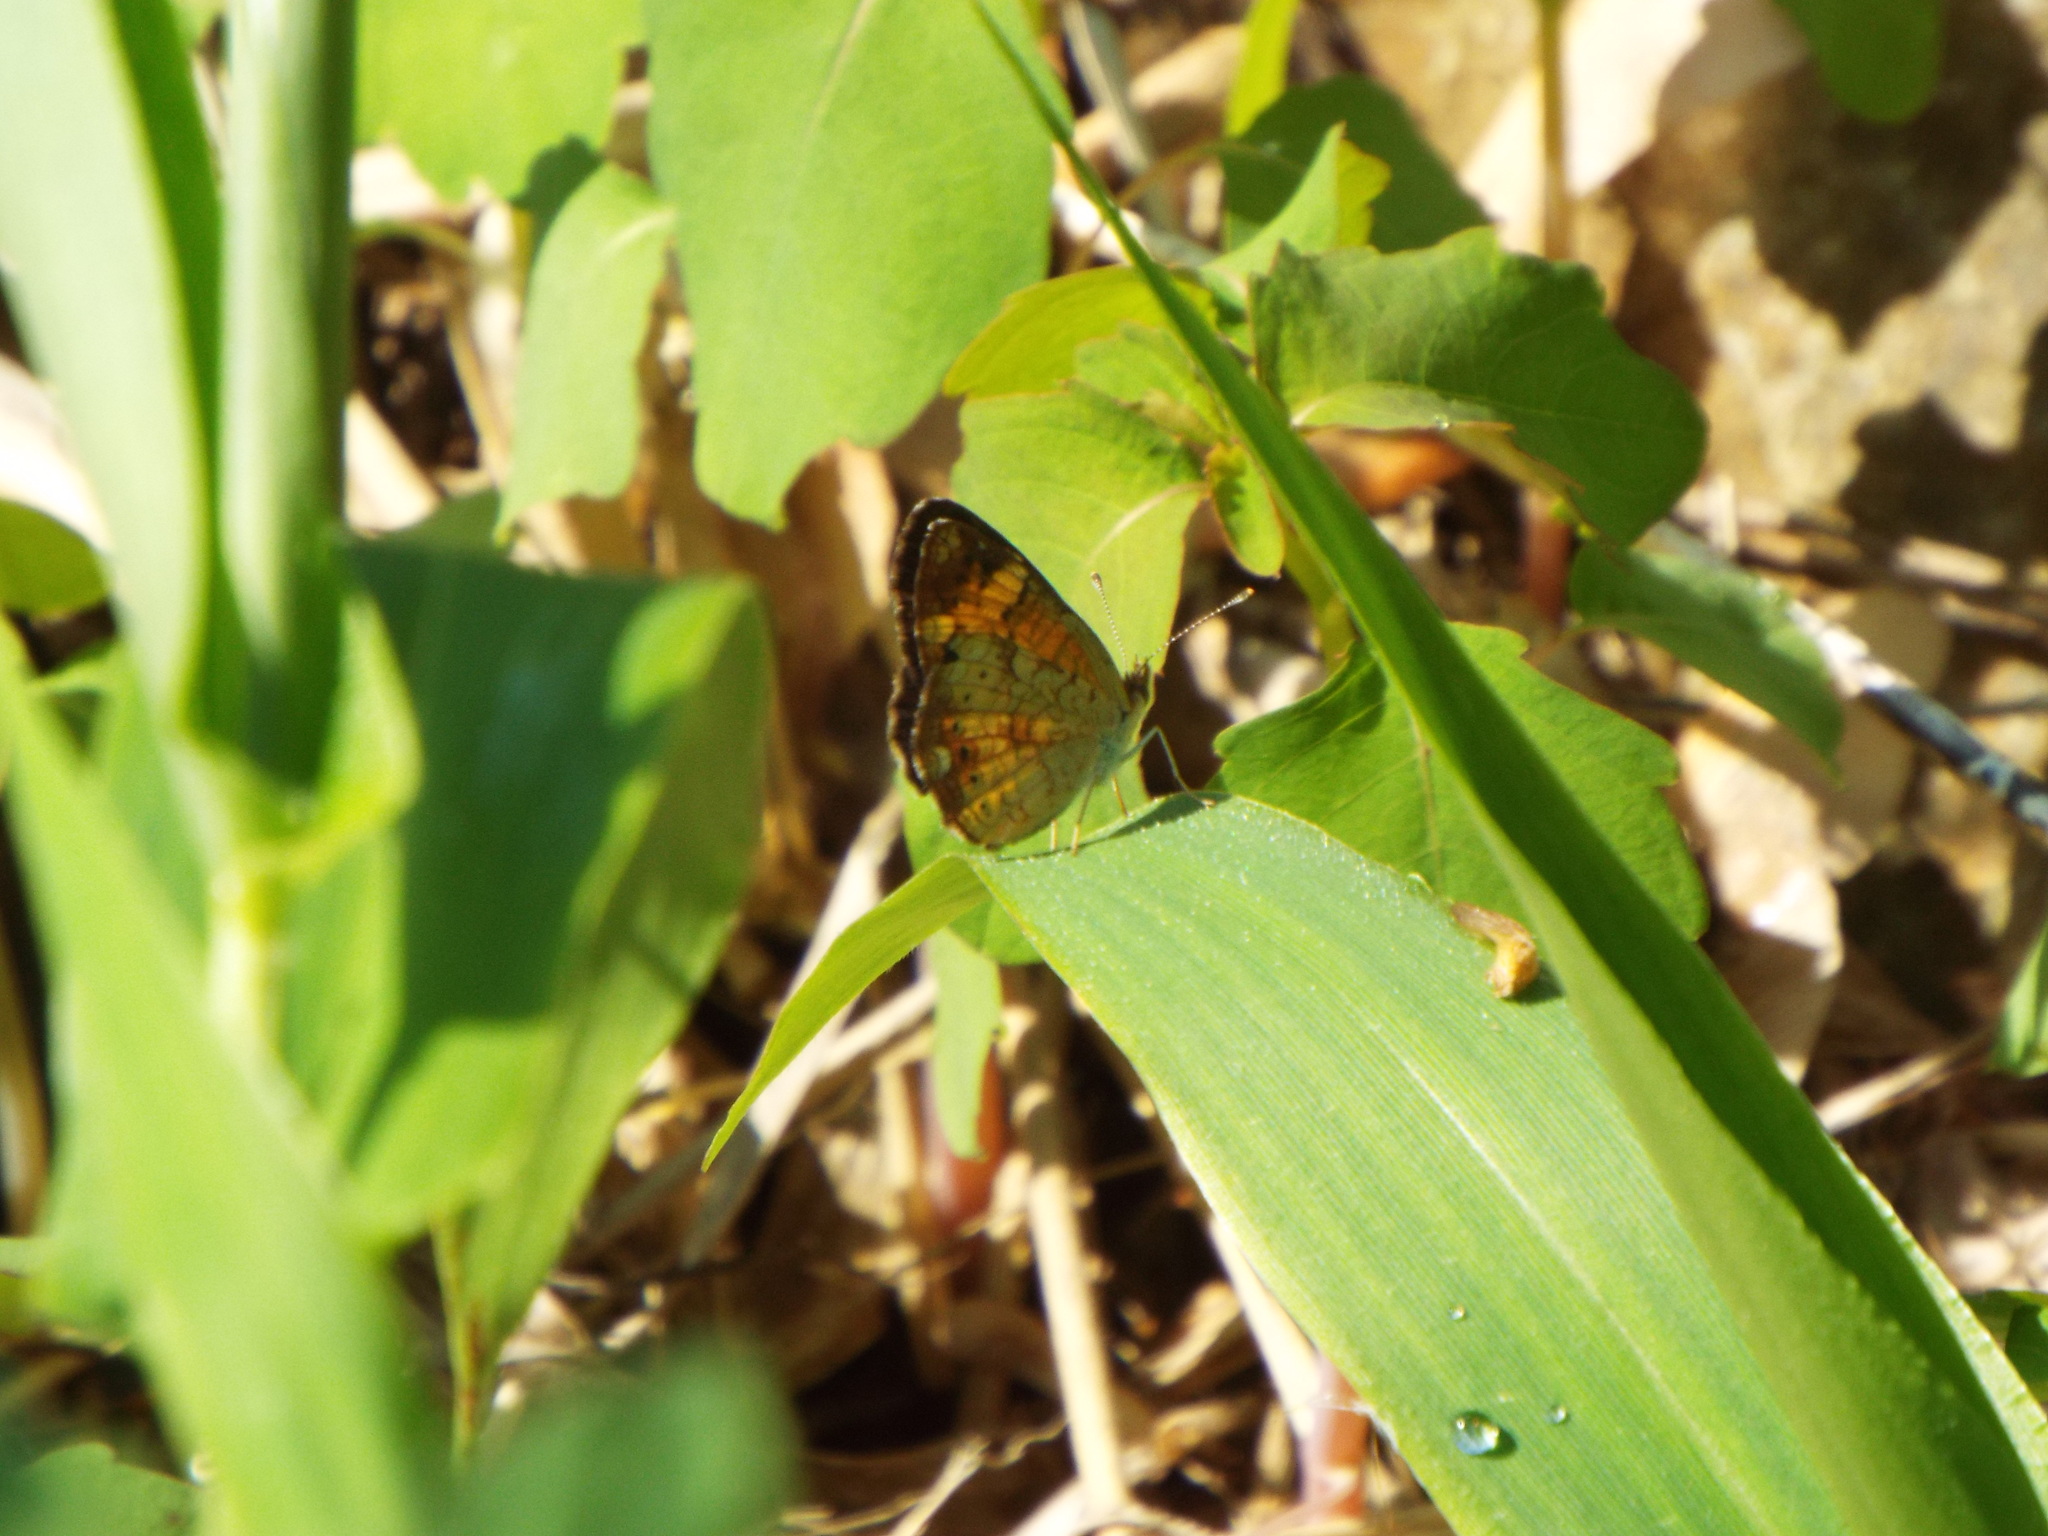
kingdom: Animalia
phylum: Arthropoda
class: Insecta
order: Lepidoptera
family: Nymphalidae
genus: Phyciodes
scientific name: Phyciodes tharos
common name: Pearl crescent
